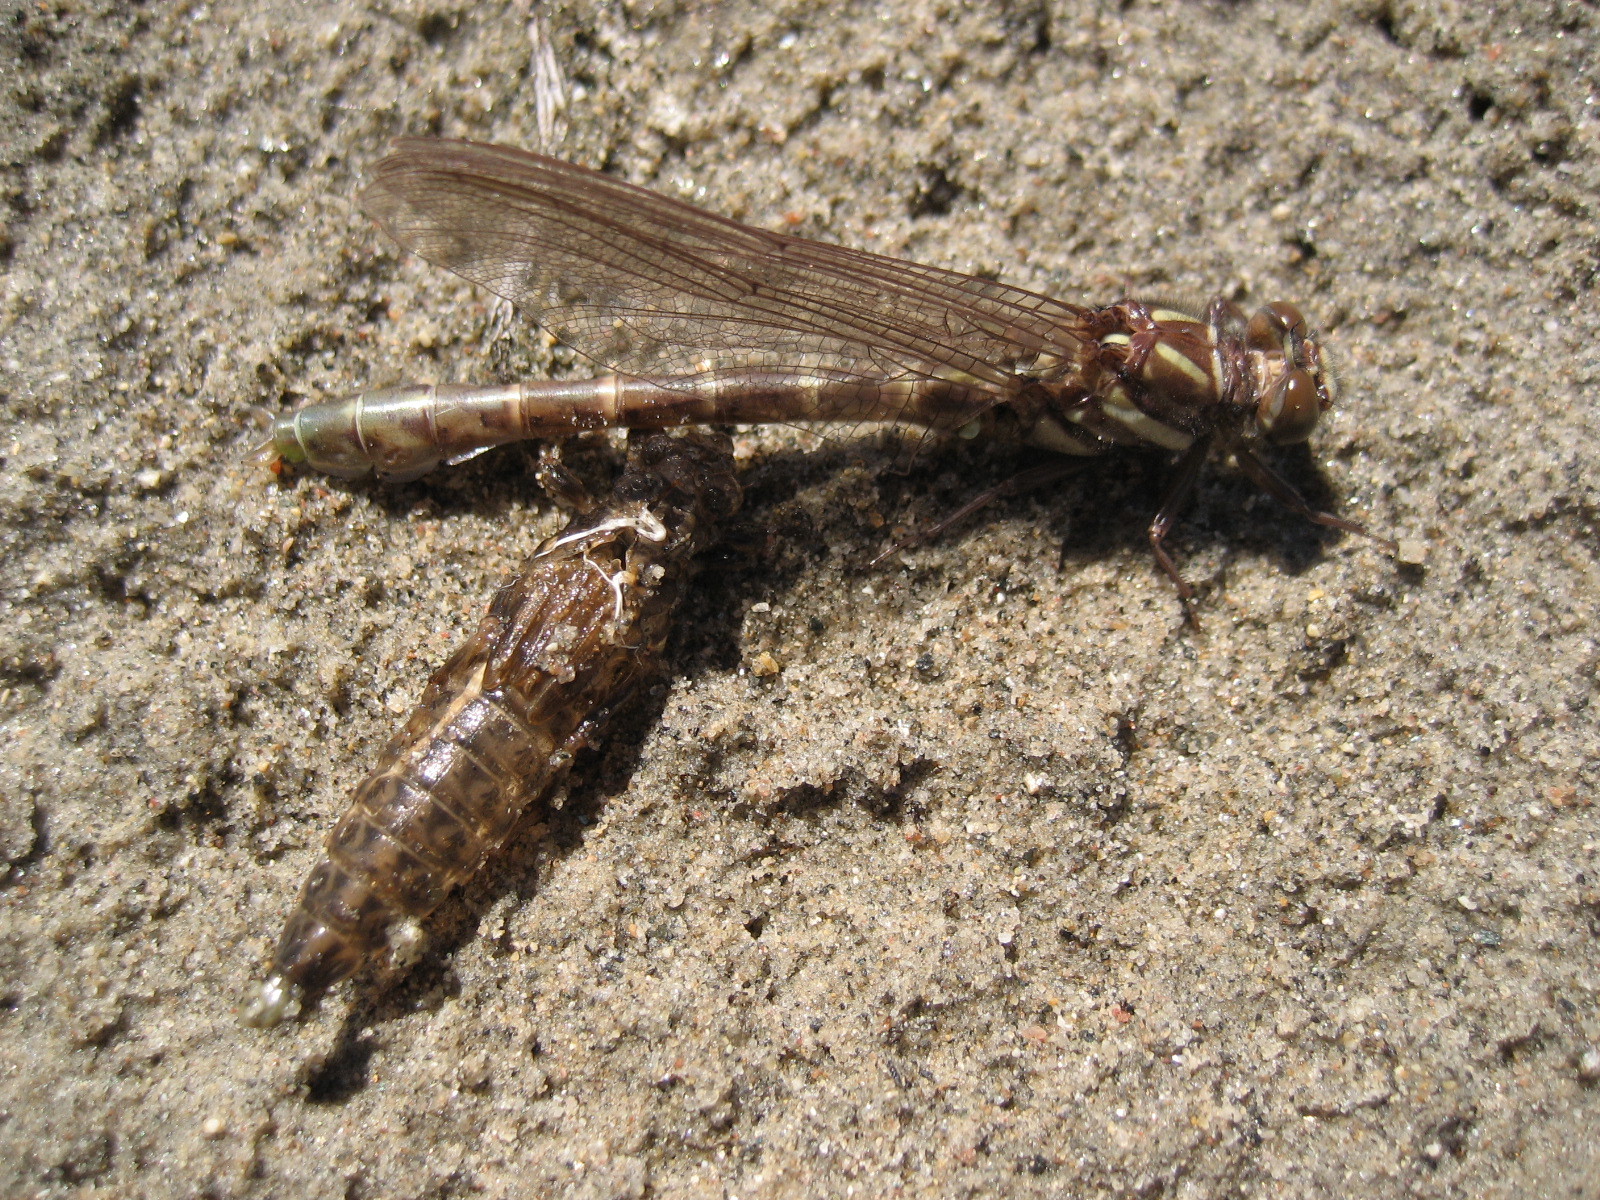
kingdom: Animalia
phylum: Arthropoda
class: Insecta
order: Odonata
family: Gomphidae
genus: Stylurus
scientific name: Stylurus scudderi
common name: Zebra clubtail
